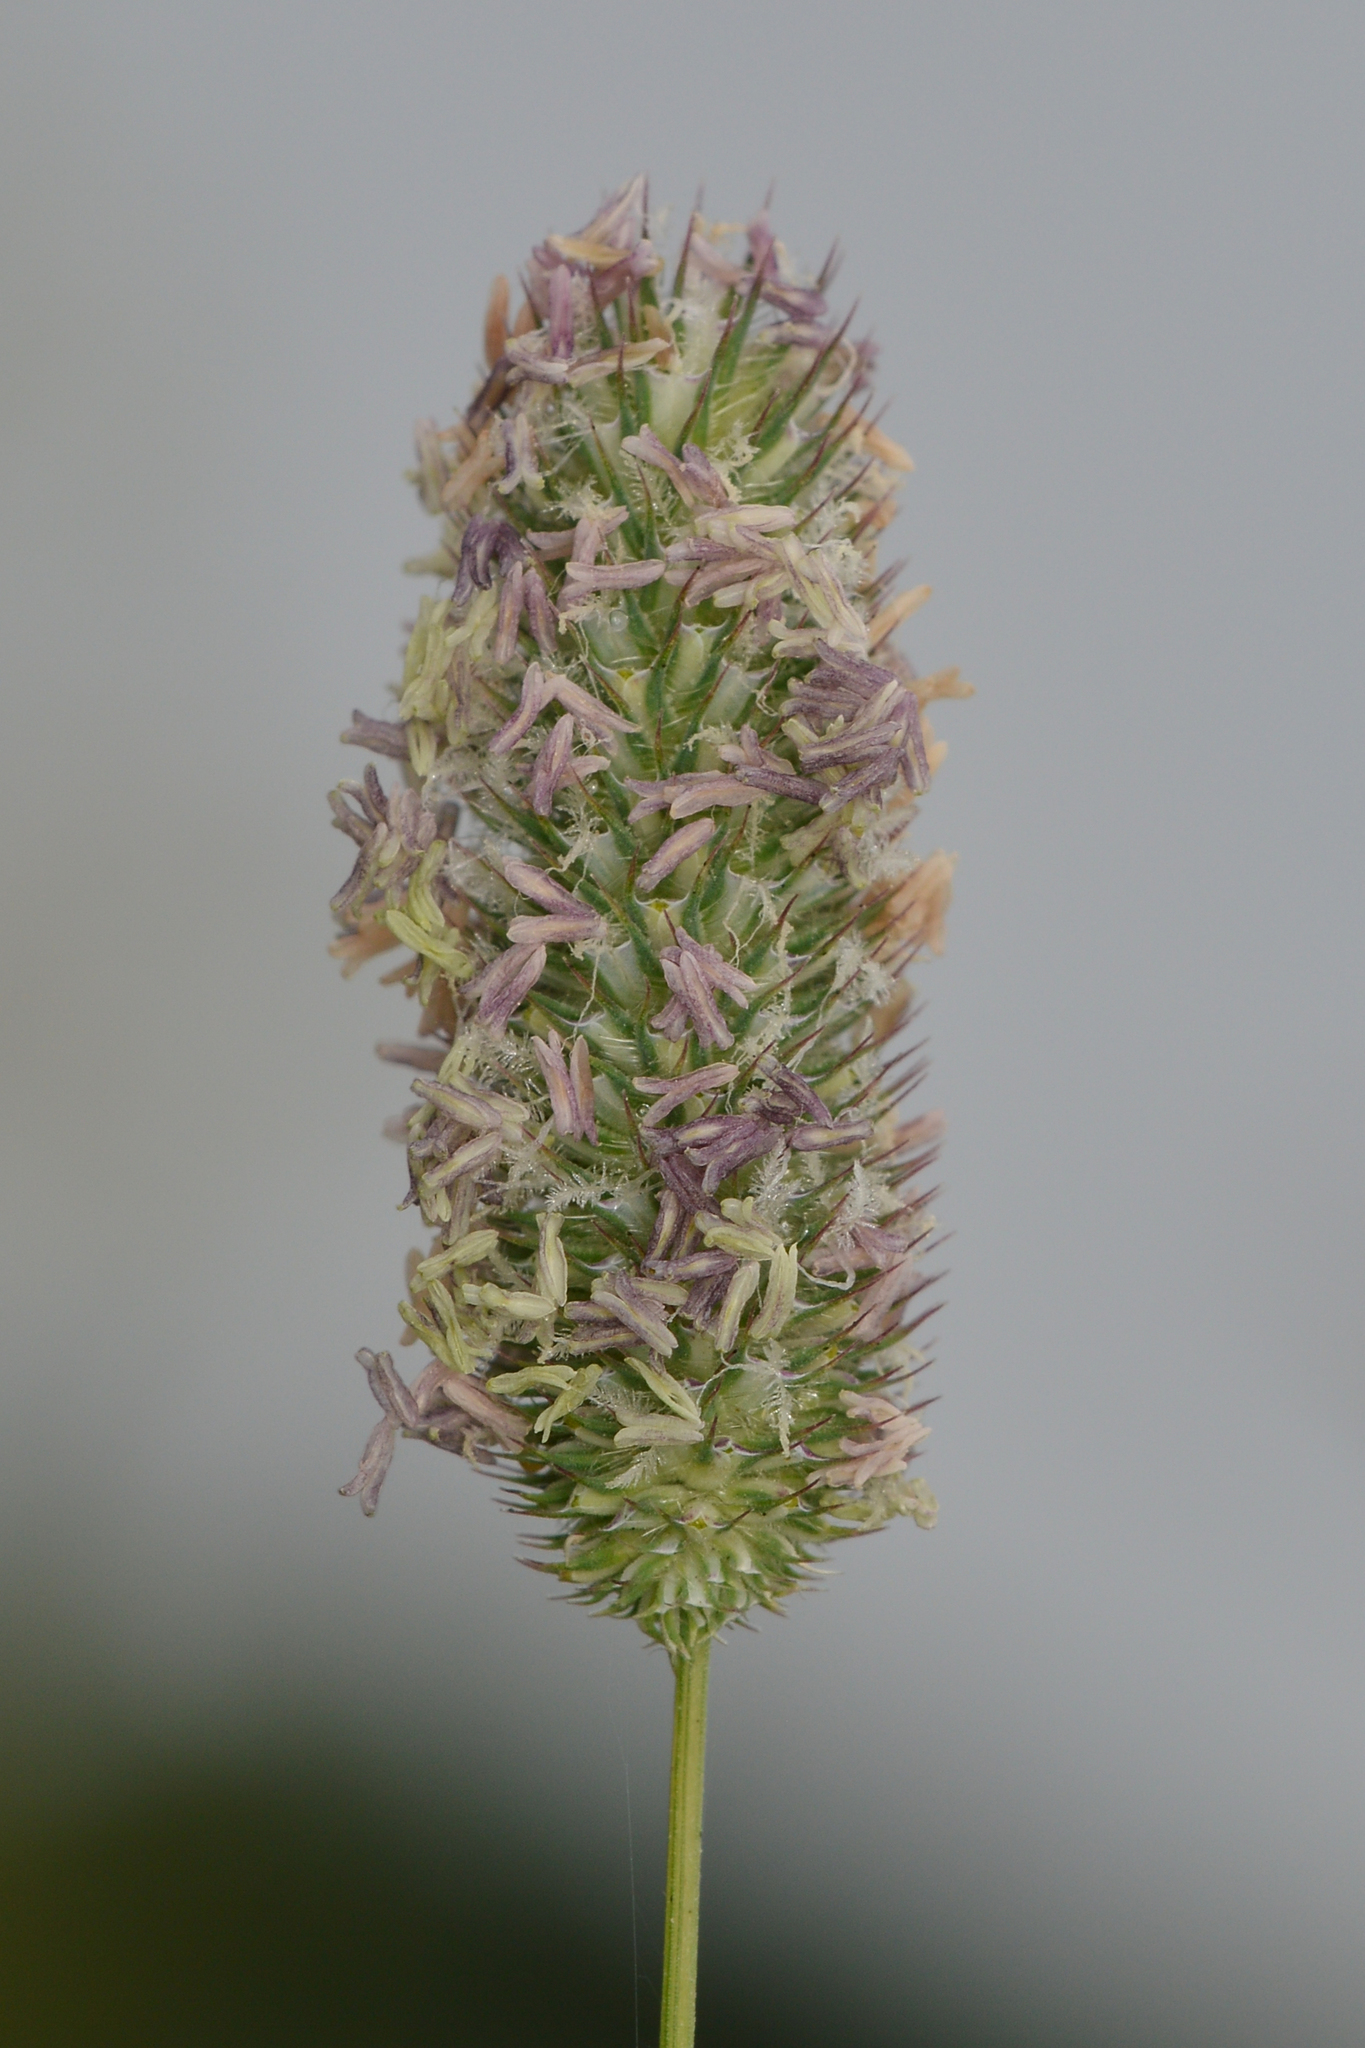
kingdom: Plantae
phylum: Tracheophyta
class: Liliopsida
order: Poales
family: Poaceae
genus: Phleum
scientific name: Phleum pratense
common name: Timothy grass
